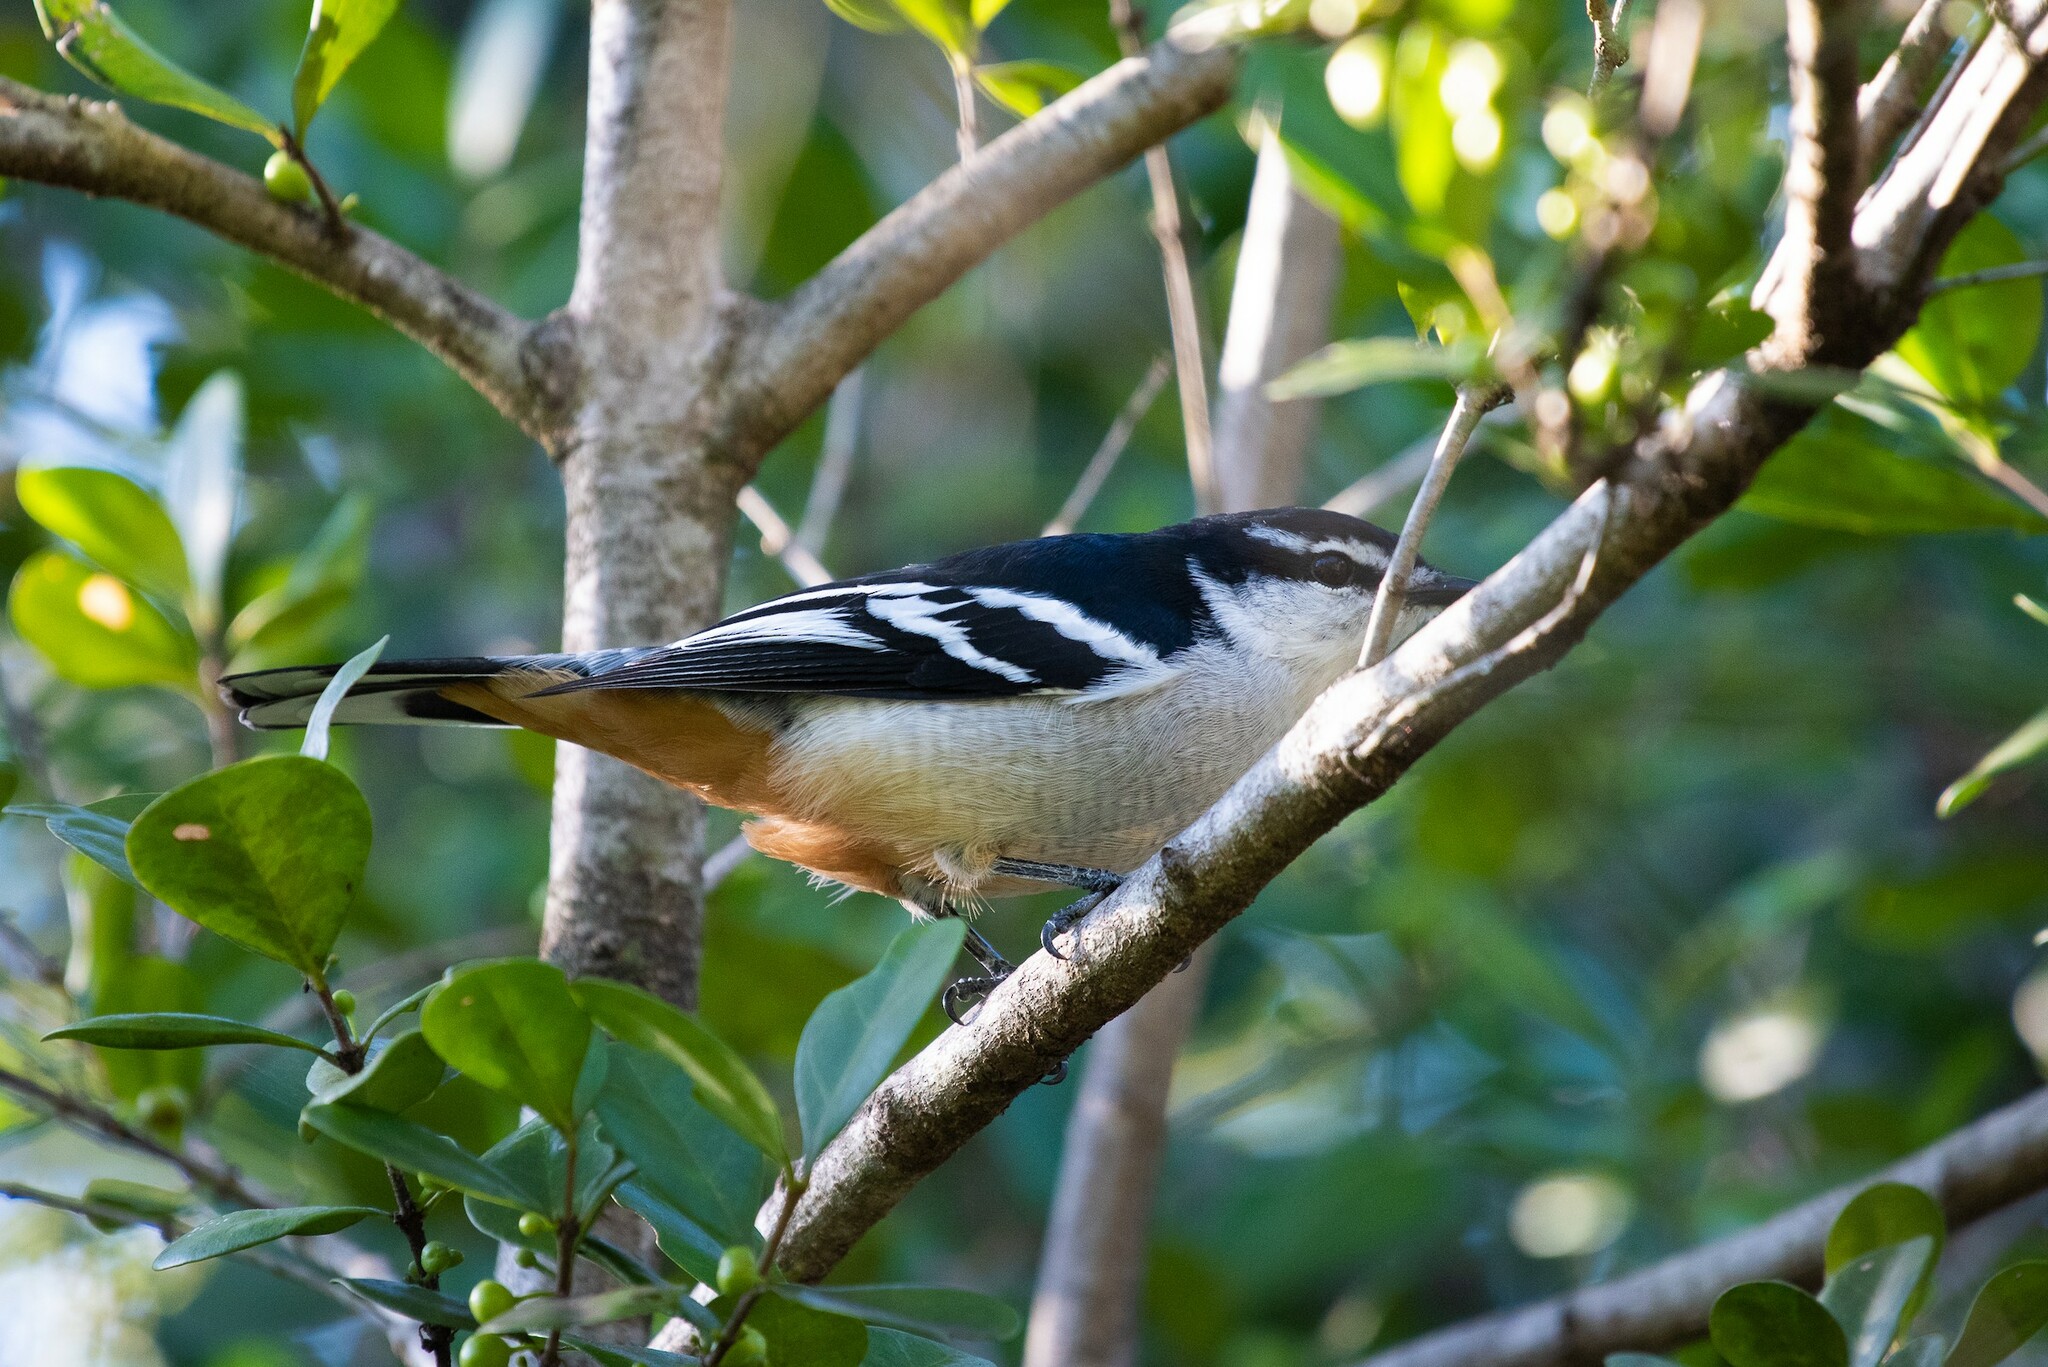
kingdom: Animalia
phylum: Chordata
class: Aves
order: Passeriformes
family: Campephagidae
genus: Lalage
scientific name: Lalage leucomela
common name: Varied triller
